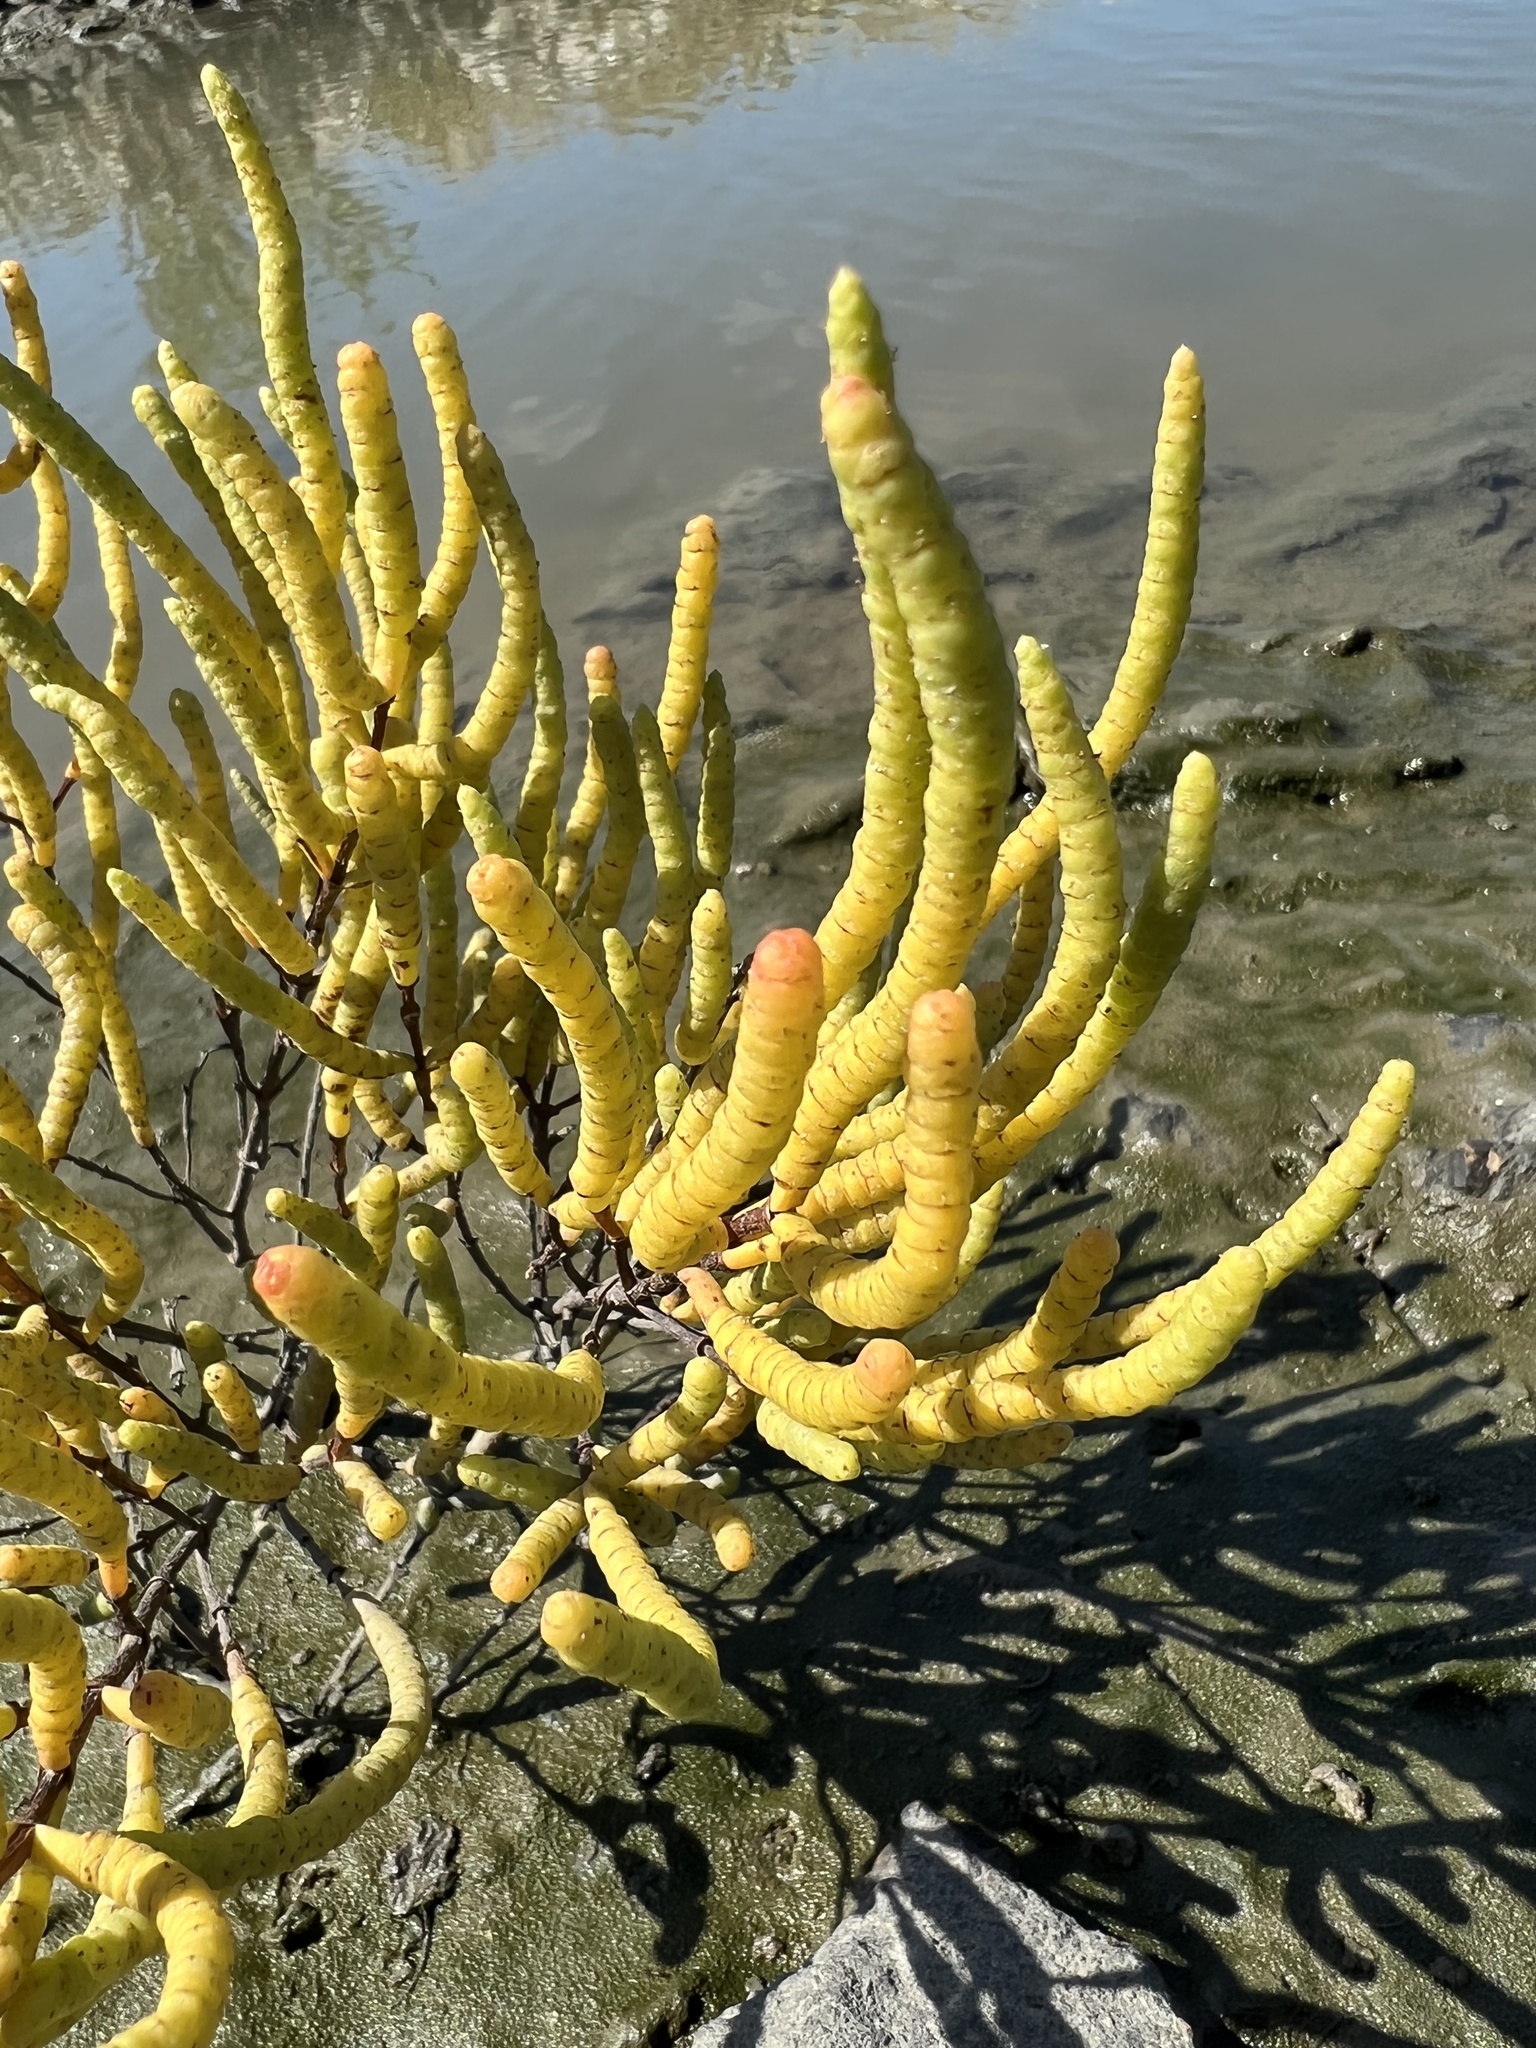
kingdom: Plantae
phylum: Tracheophyta
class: Magnoliopsida
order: Caryophyllales
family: Amaranthaceae
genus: Salicornia
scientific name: Salicornia bigelovii
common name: Dwarf glasswort
